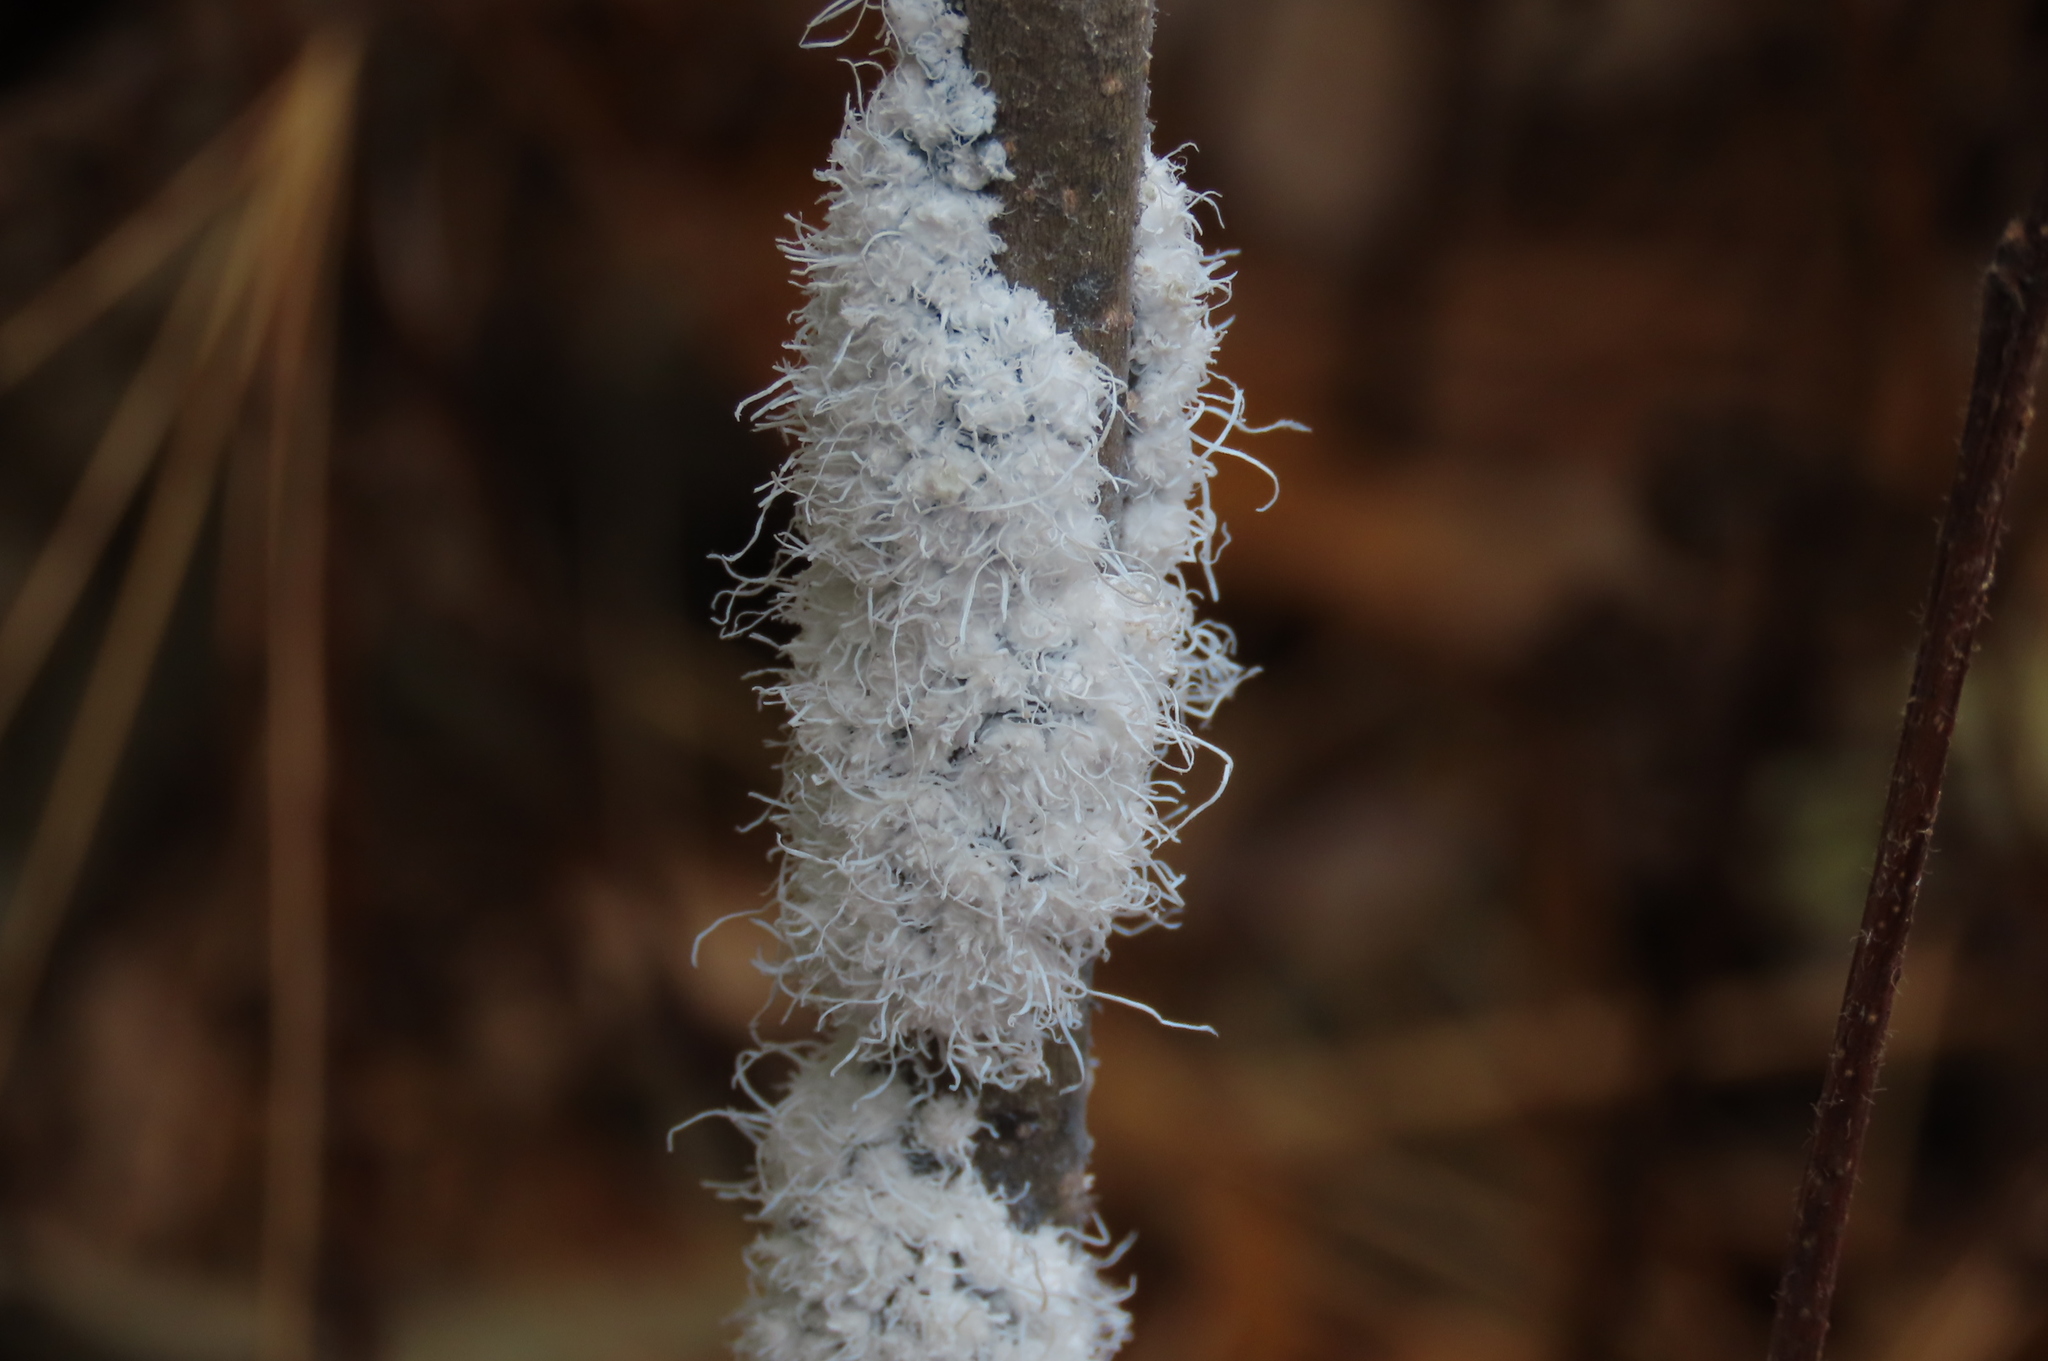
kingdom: Animalia
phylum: Arthropoda
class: Insecta
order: Hemiptera
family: Aphididae
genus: Prociphilus
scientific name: Prociphilus tessellatus
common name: Woolly alder aphid
